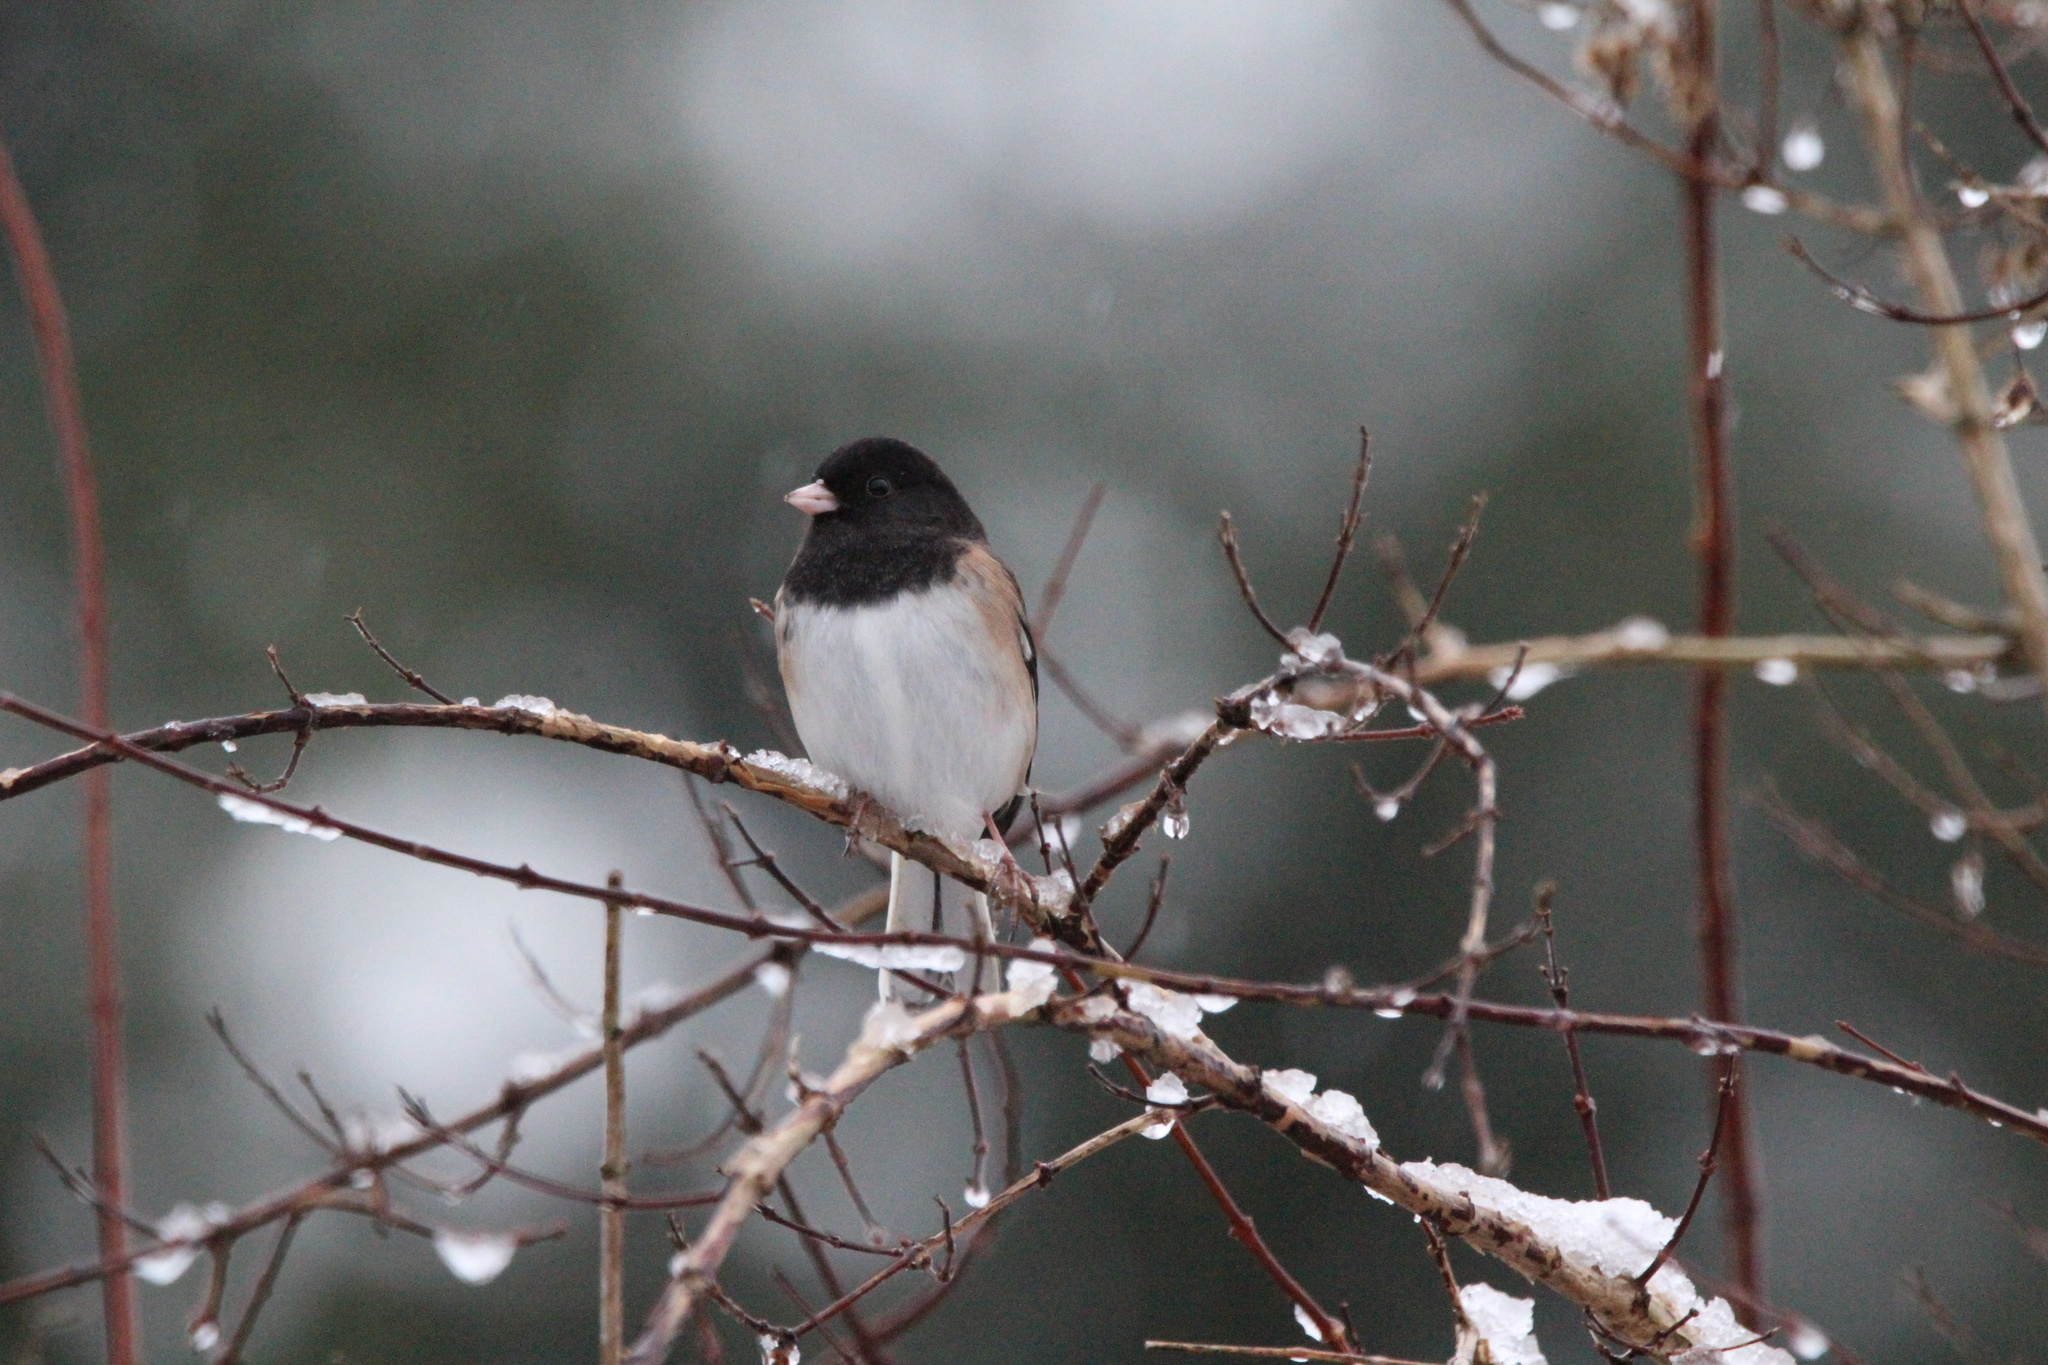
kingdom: Animalia
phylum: Chordata
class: Aves
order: Passeriformes
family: Passerellidae
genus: Junco
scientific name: Junco hyemalis
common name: Dark-eyed junco
